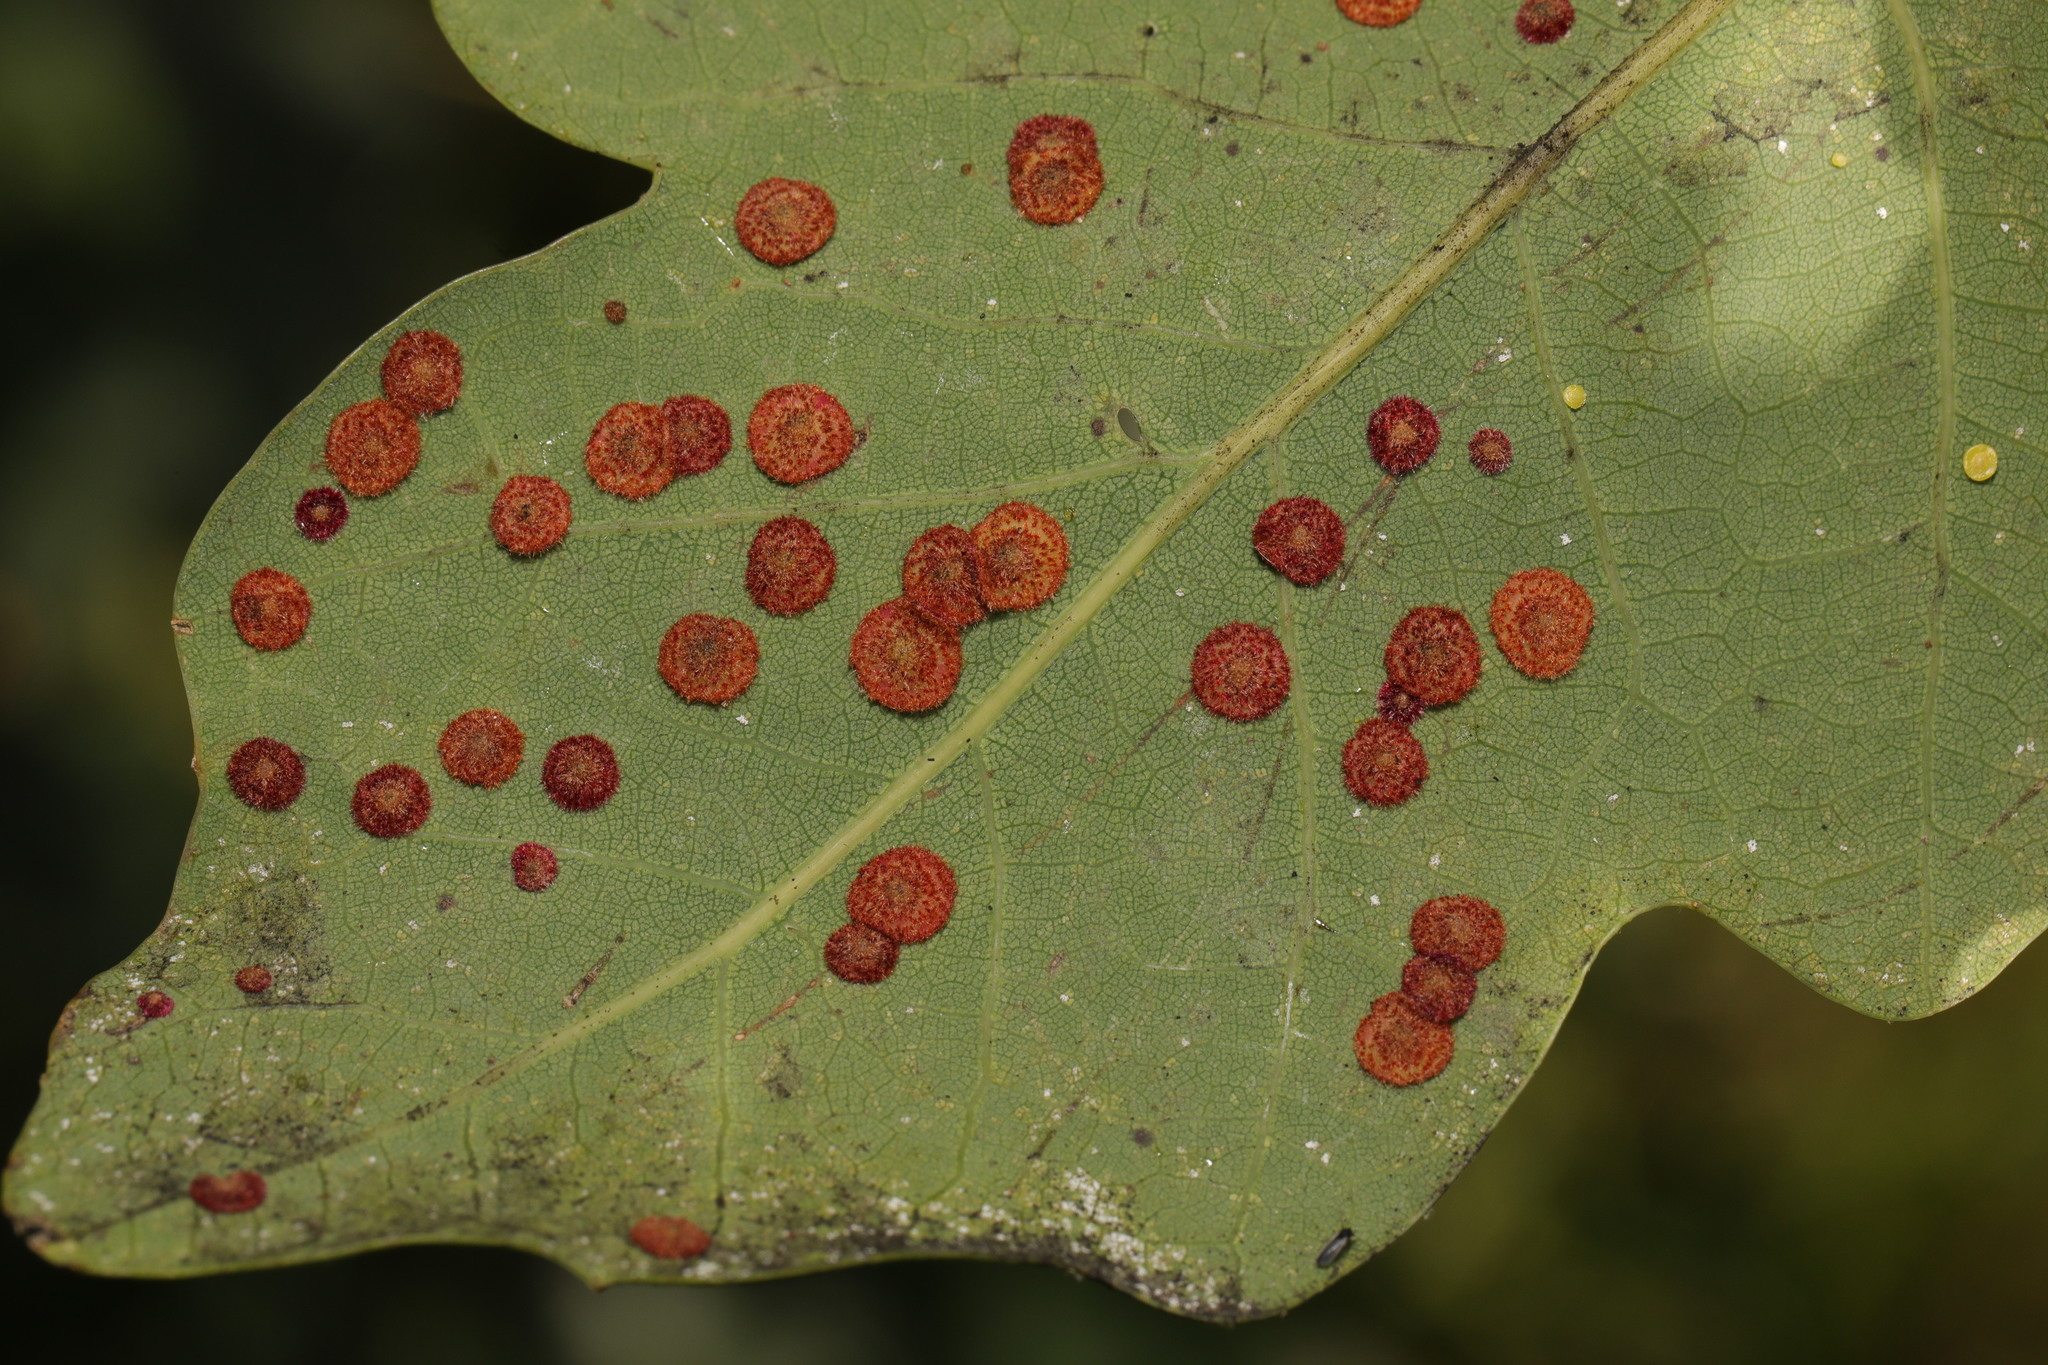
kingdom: Animalia
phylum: Arthropoda
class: Insecta
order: Hymenoptera
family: Cynipidae
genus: Neuroterus
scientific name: Neuroterus quercusbaccarum
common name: Common spangle gall
